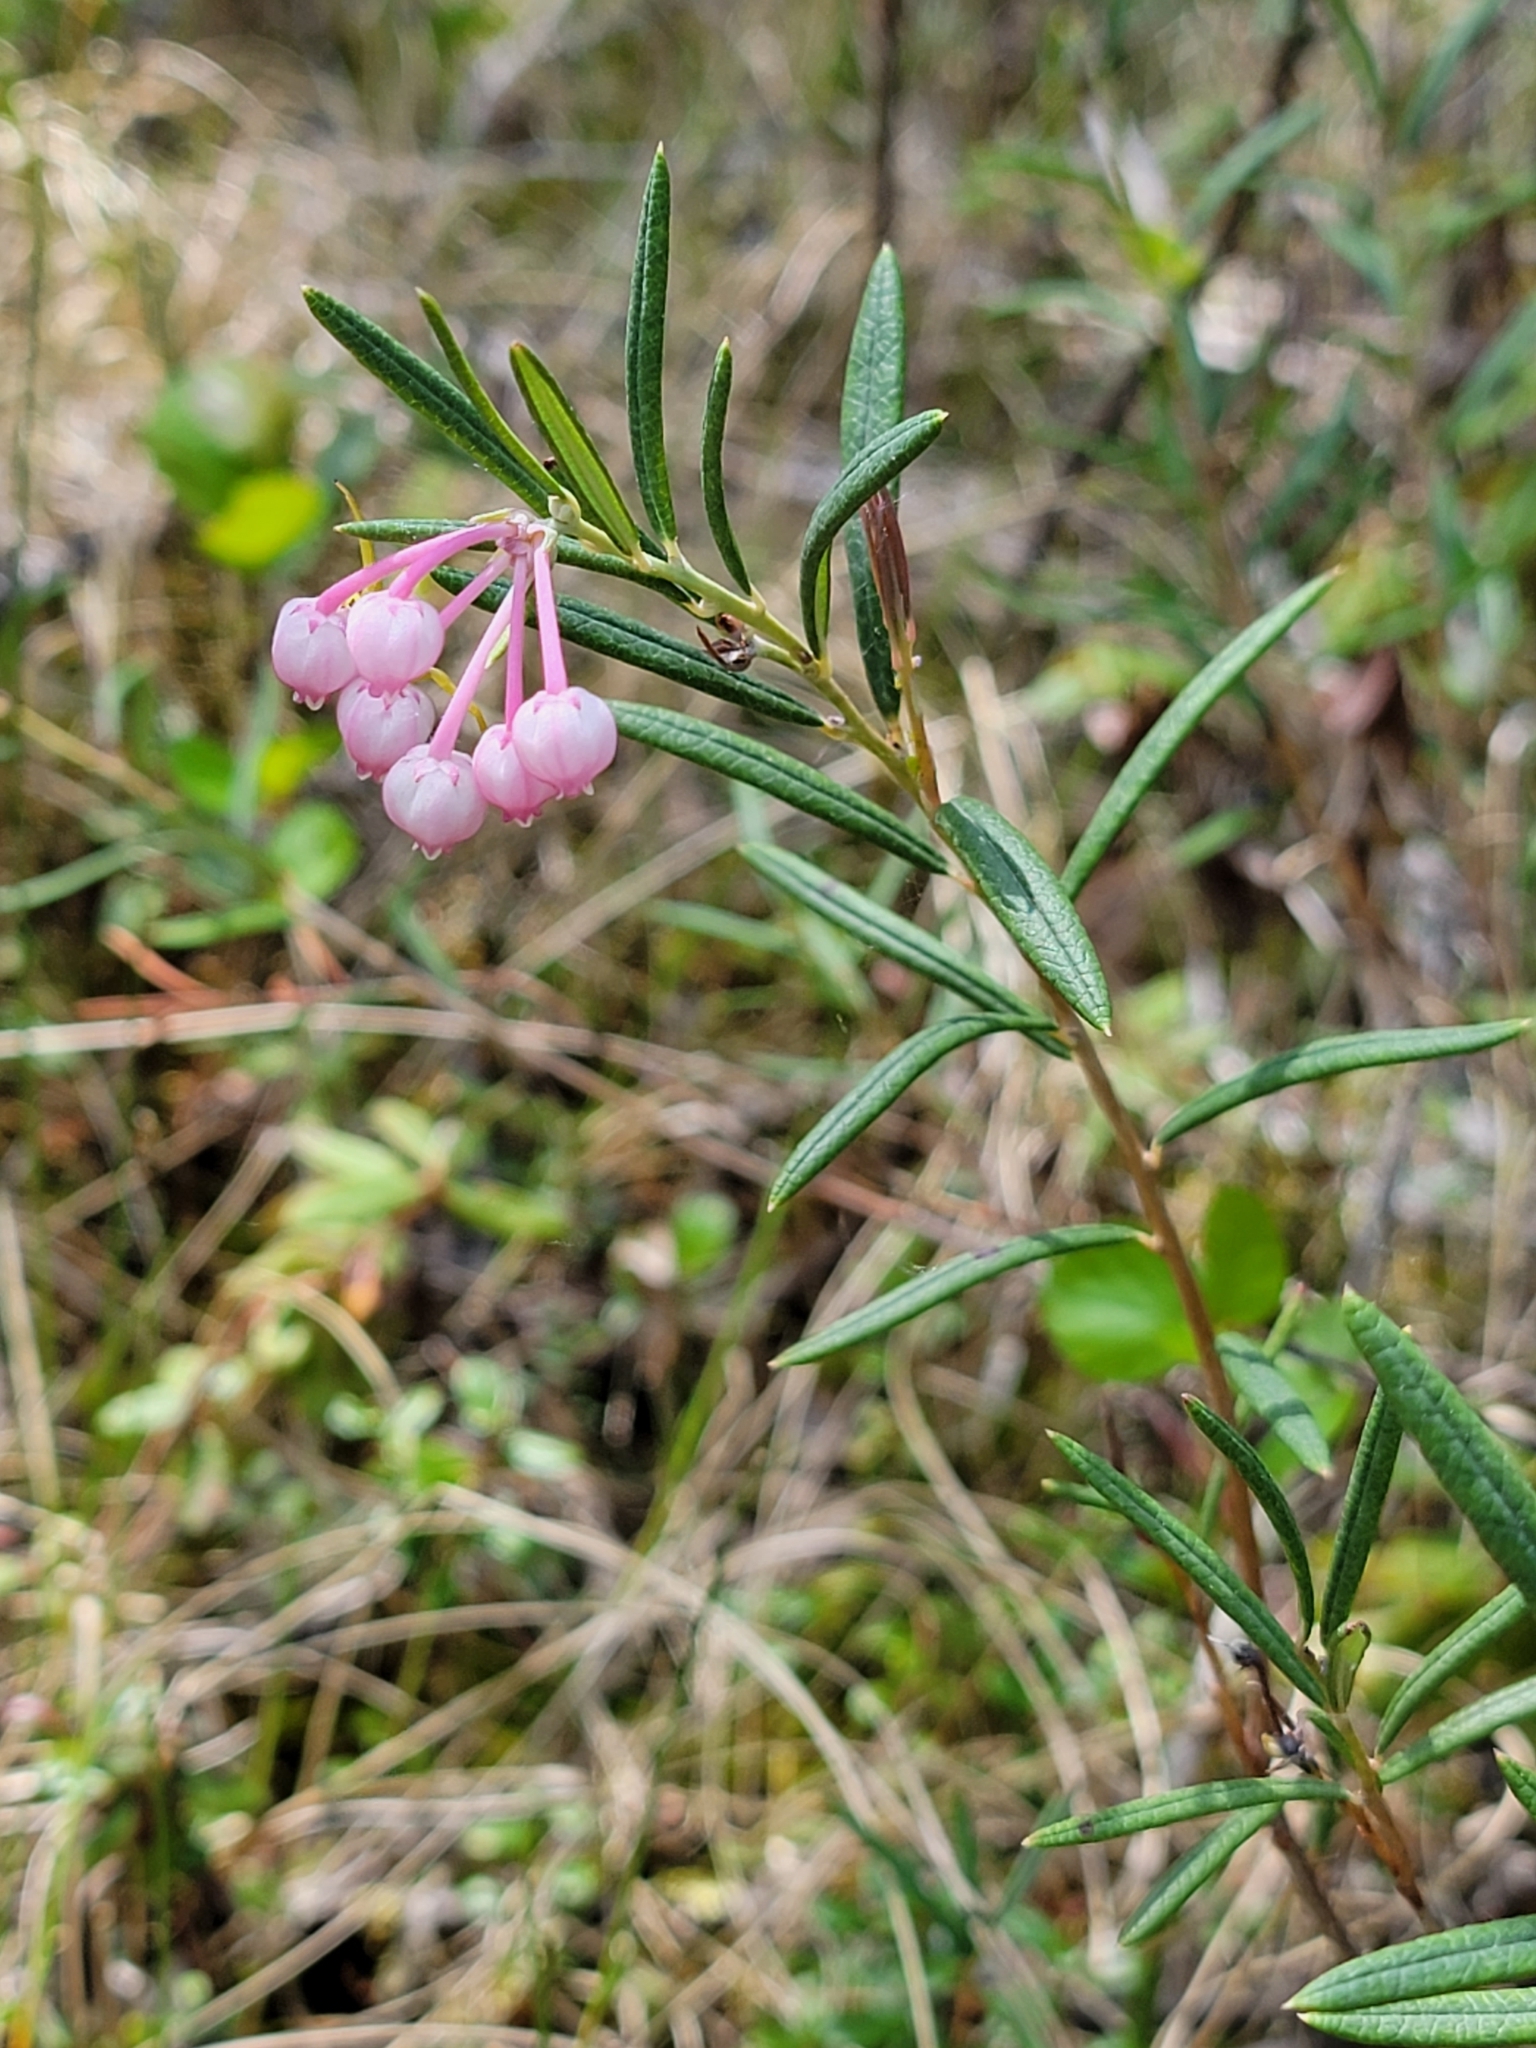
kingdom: Plantae
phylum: Tracheophyta
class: Magnoliopsida
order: Ericales
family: Ericaceae
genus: Andromeda
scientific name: Andromeda polifolia
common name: Bog-rosemary
